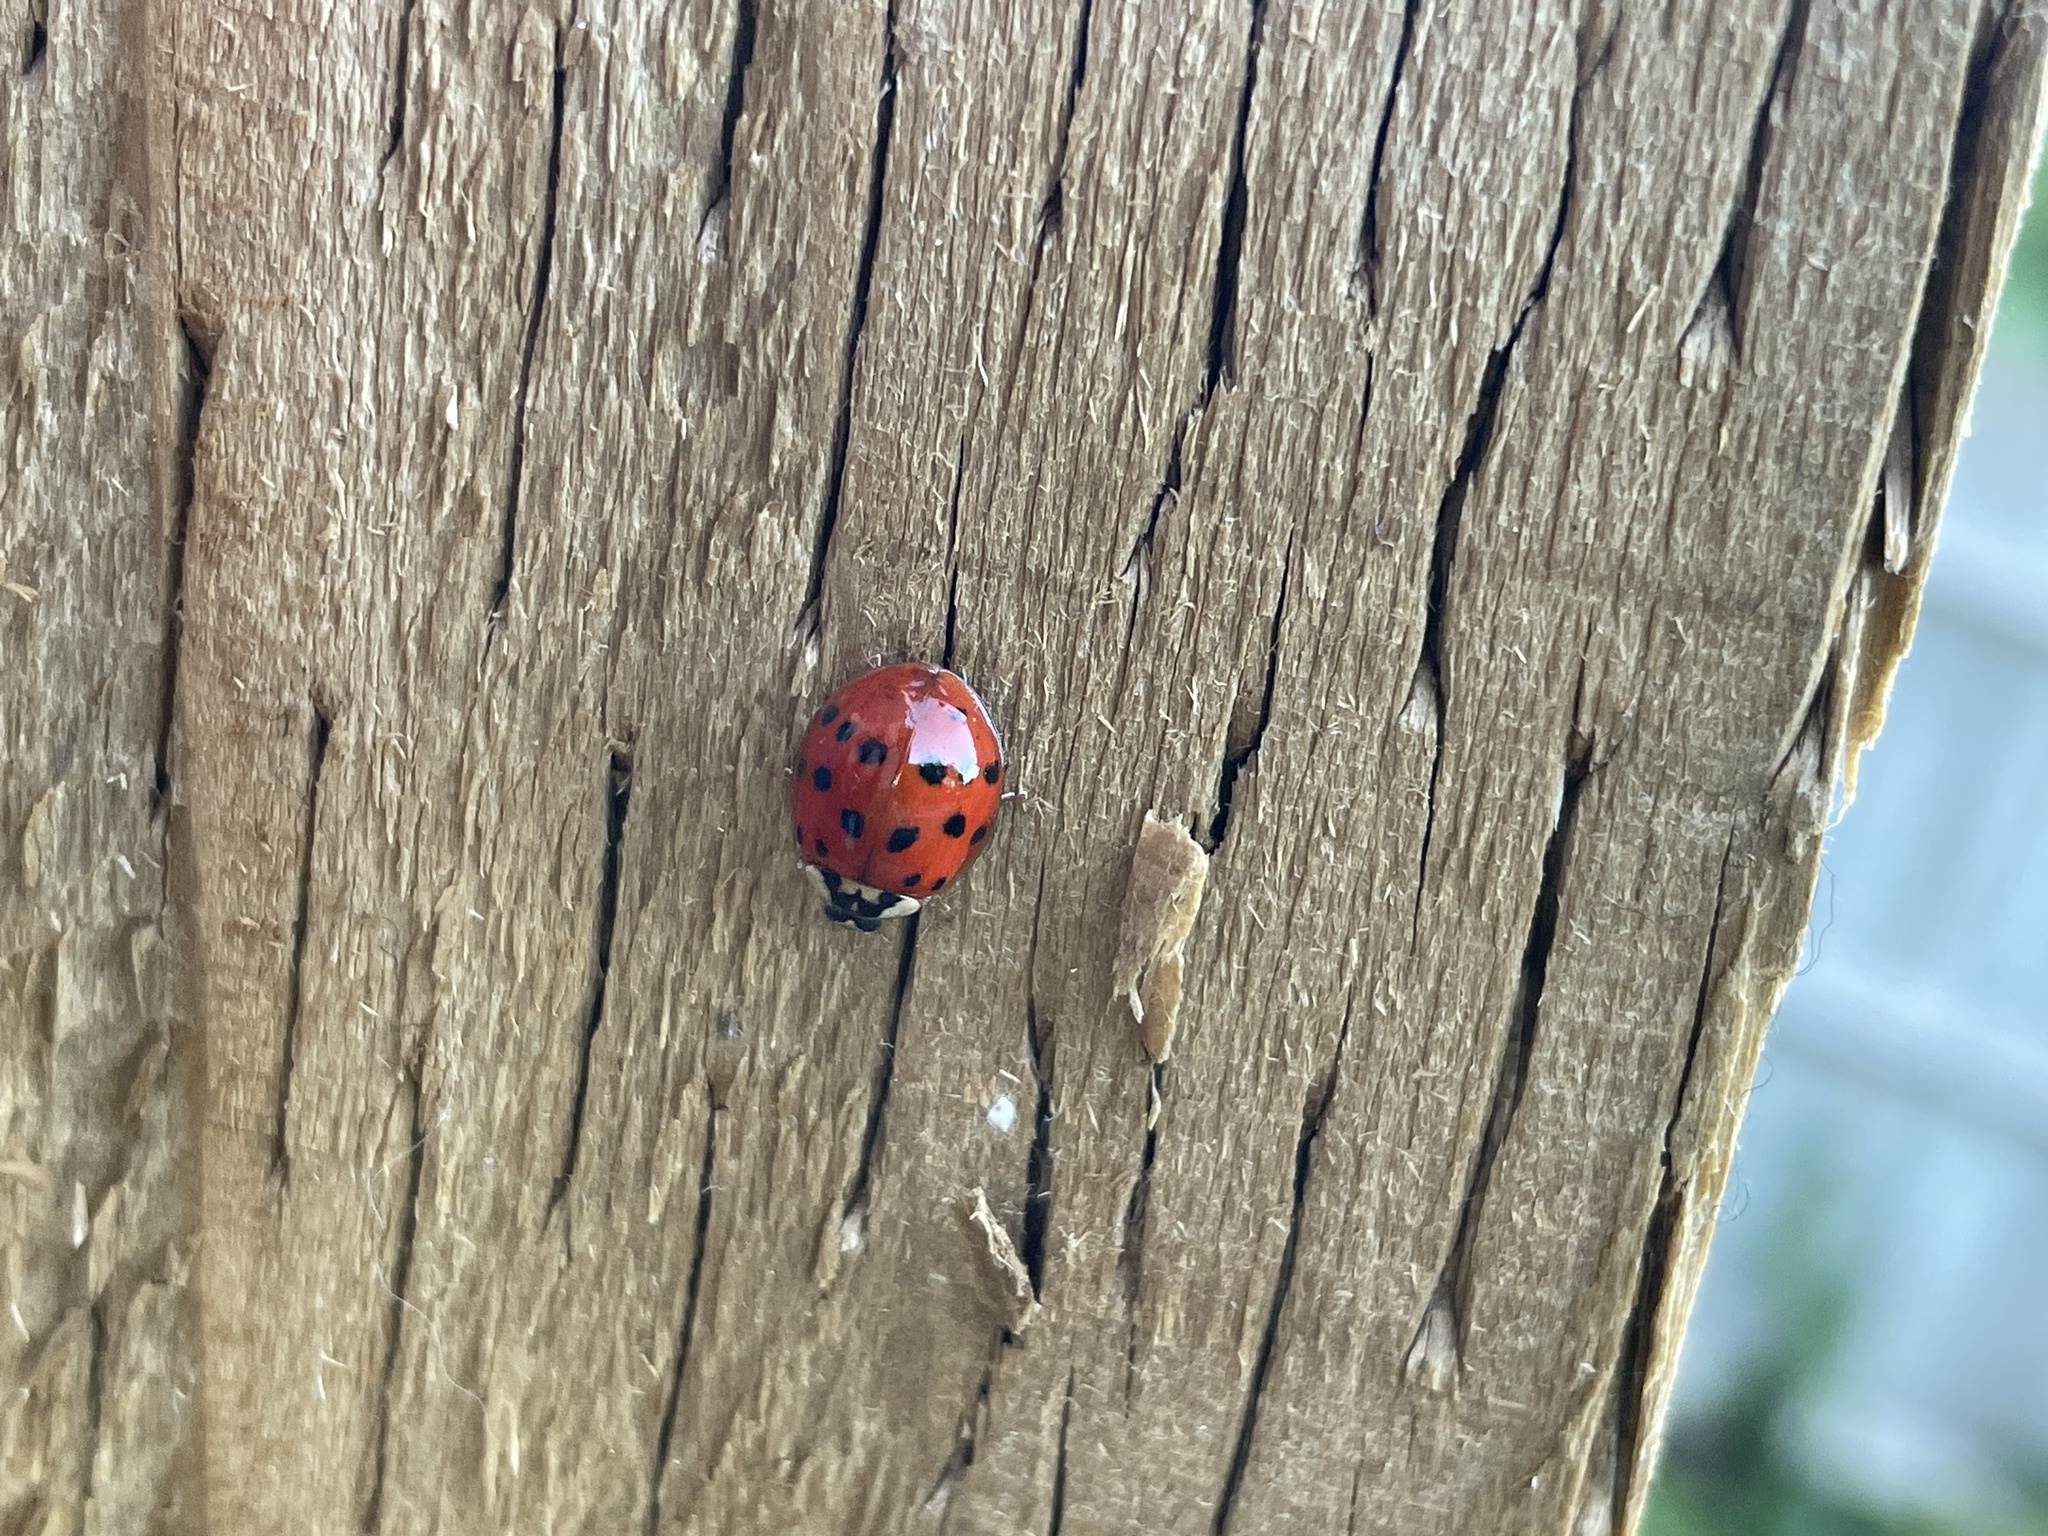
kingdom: Animalia
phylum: Arthropoda
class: Insecta
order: Coleoptera
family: Coccinellidae
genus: Harmonia
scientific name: Harmonia axyridis
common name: Harlequin ladybird
